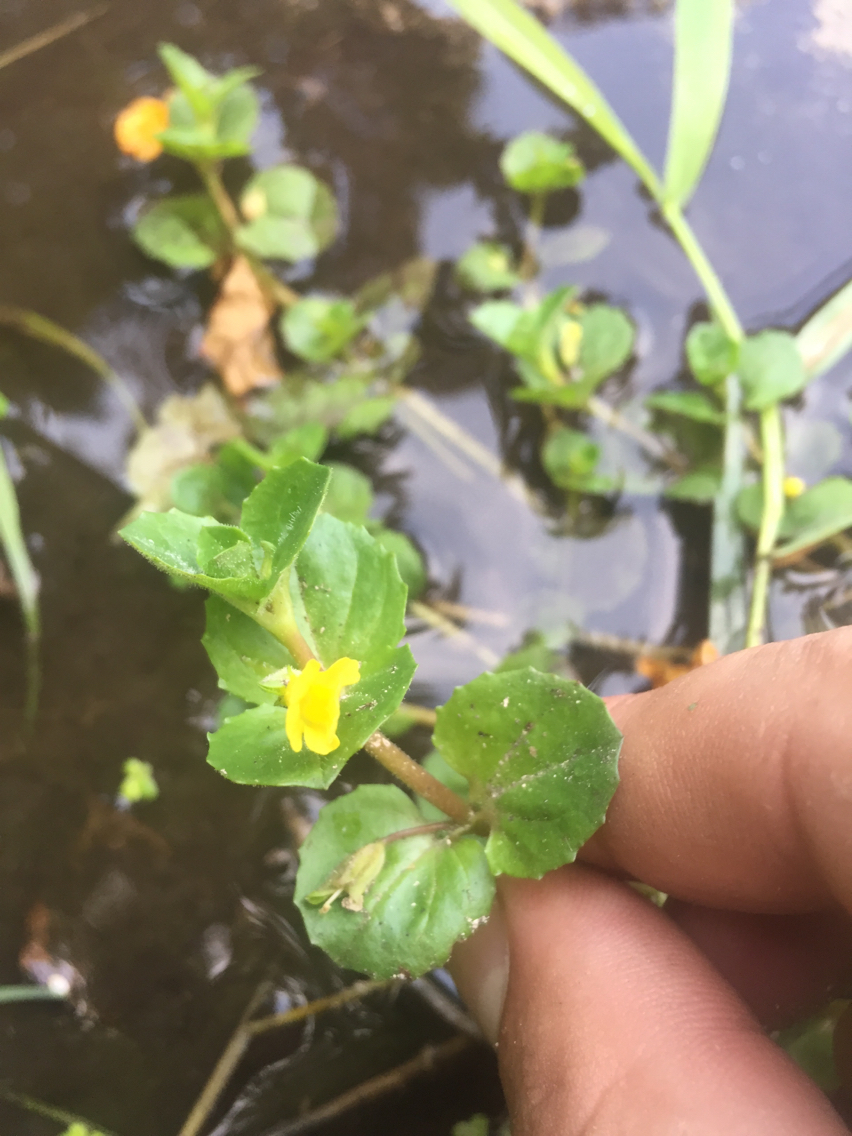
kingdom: Plantae
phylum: Tracheophyta
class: Magnoliopsida
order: Lamiales
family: Phrymaceae
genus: Erythranthe
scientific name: Erythranthe guttata
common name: Monkeyflower
